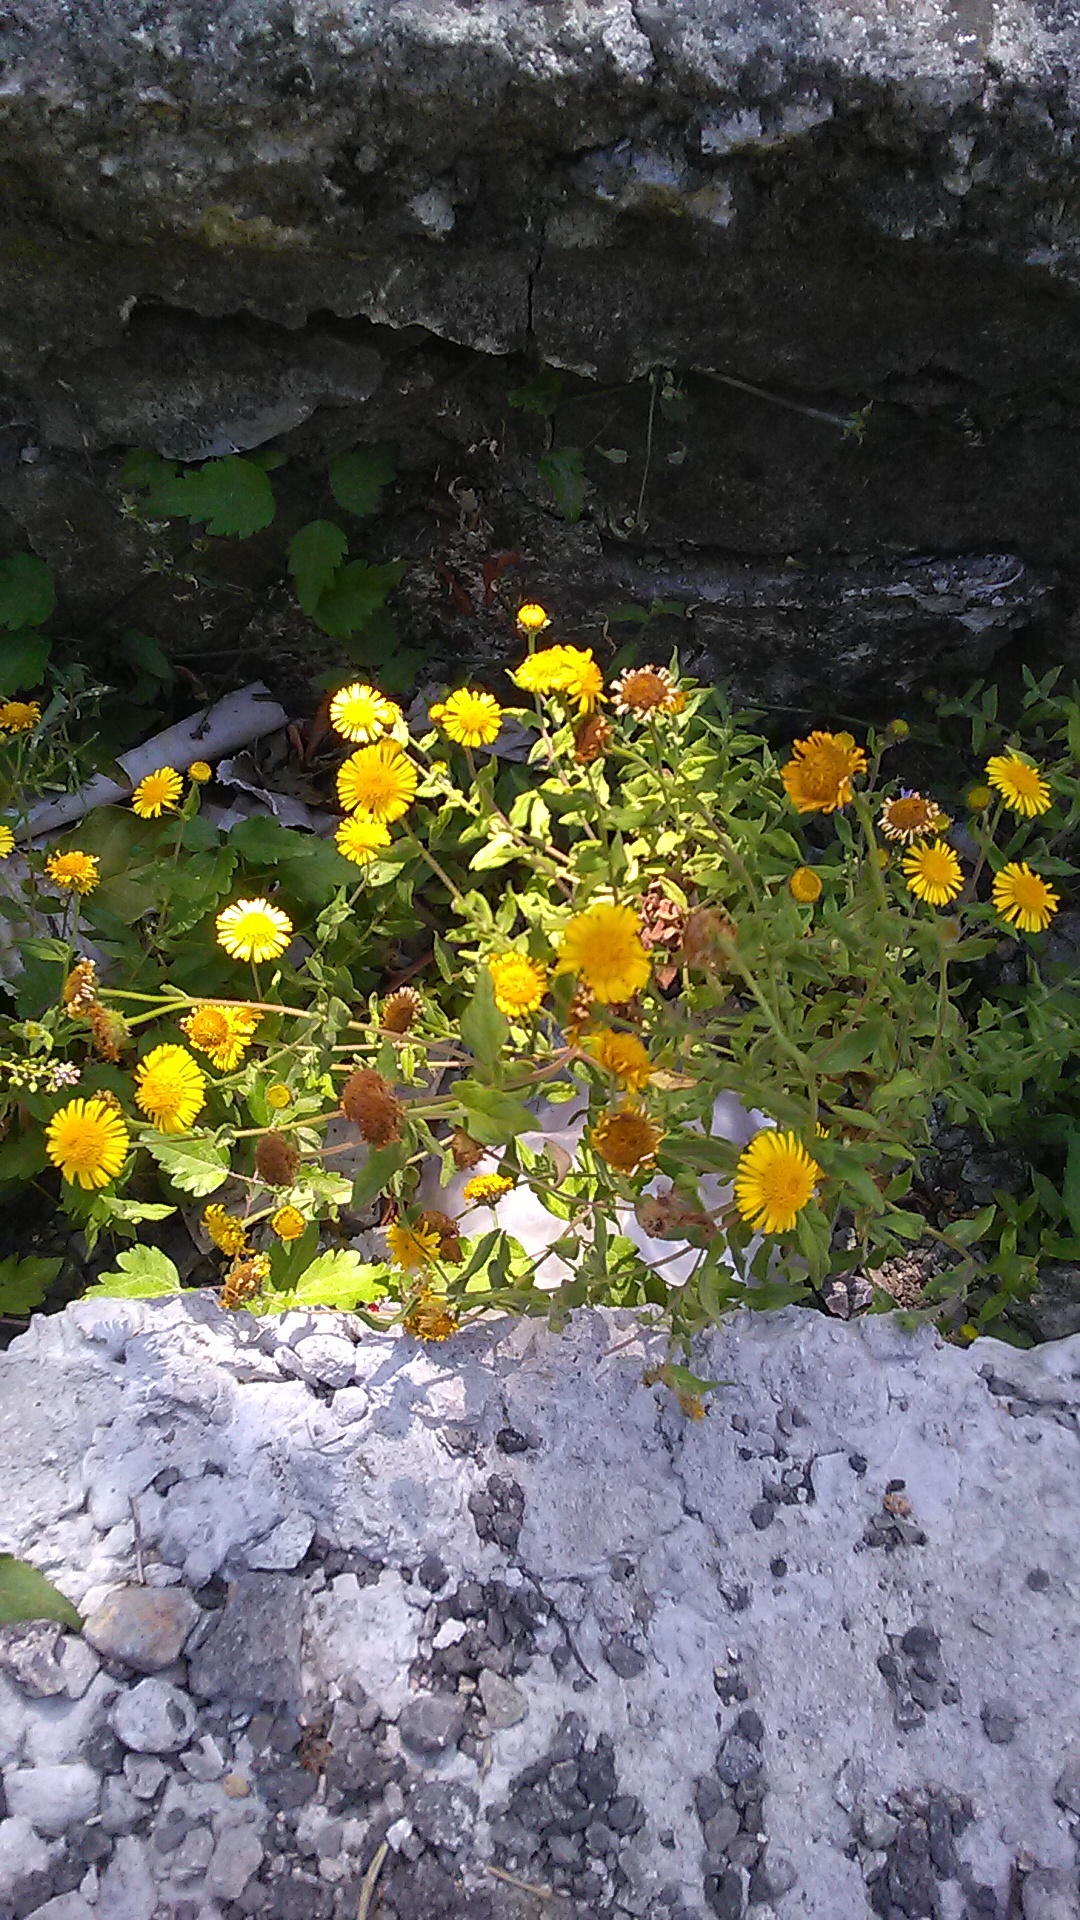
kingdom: Plantae
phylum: Tracheophyta
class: Magnoliopsida
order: Asterales
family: Asteraceae
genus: Pulicaria
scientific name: Pulicaria dysenterica
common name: Common fleabane
